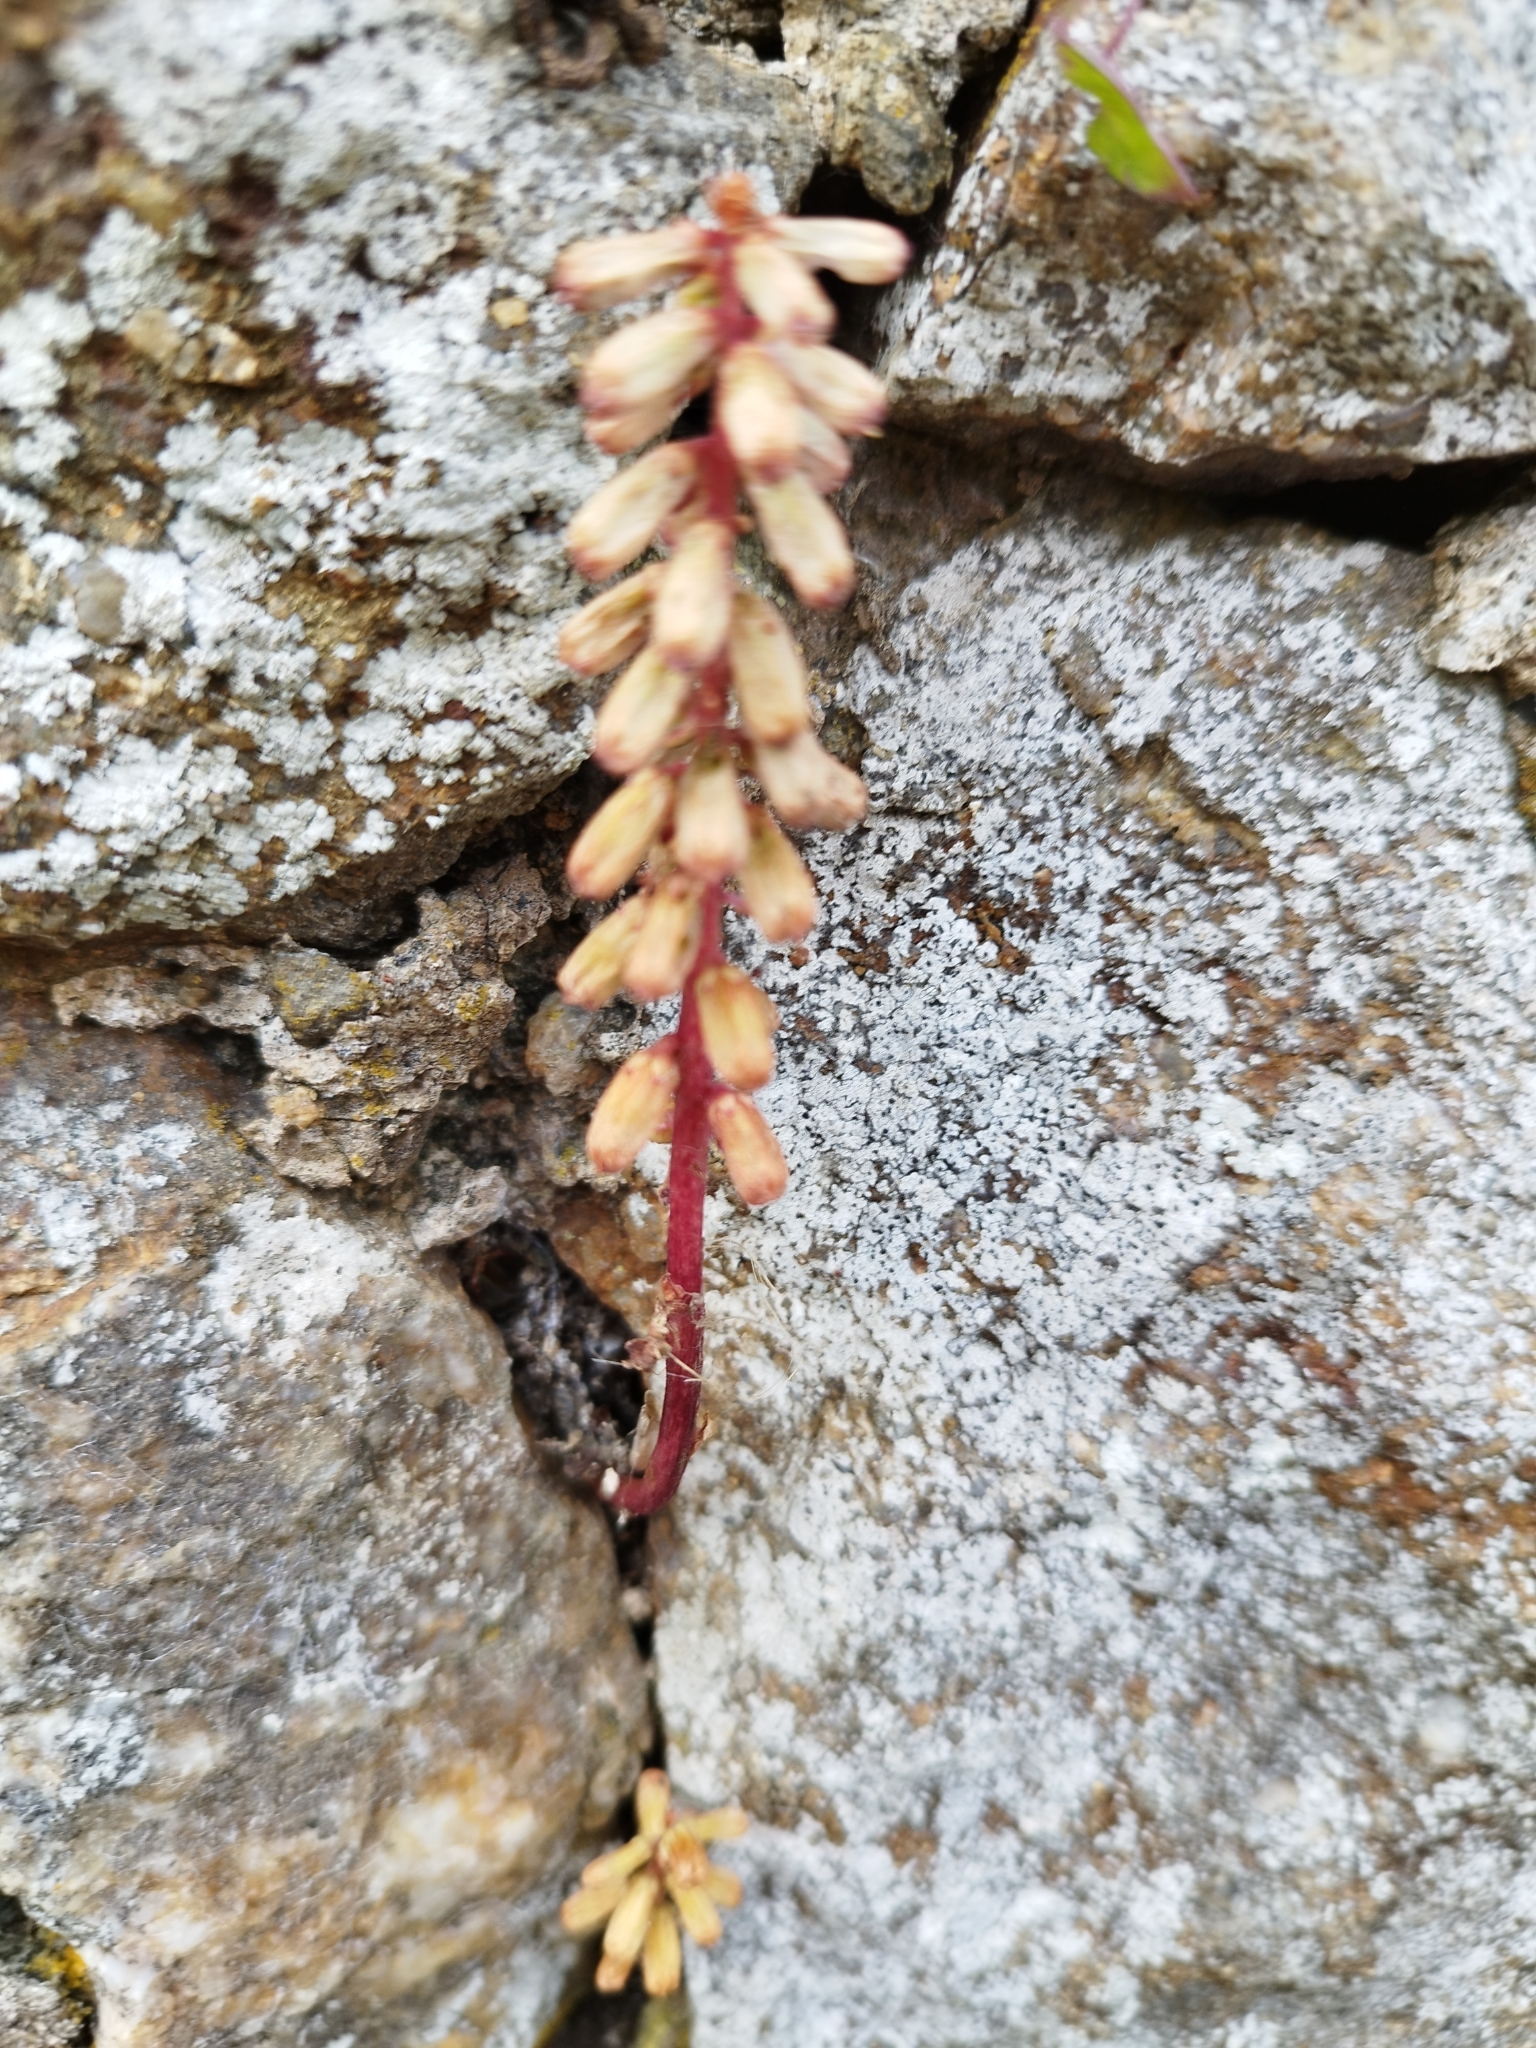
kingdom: Plantae
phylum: Tracheophyta
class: Magnoliopsida
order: Saxifragales
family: Crassulaceae
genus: Umbilicus
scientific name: Umbilicus rupestris
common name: Navelwort
